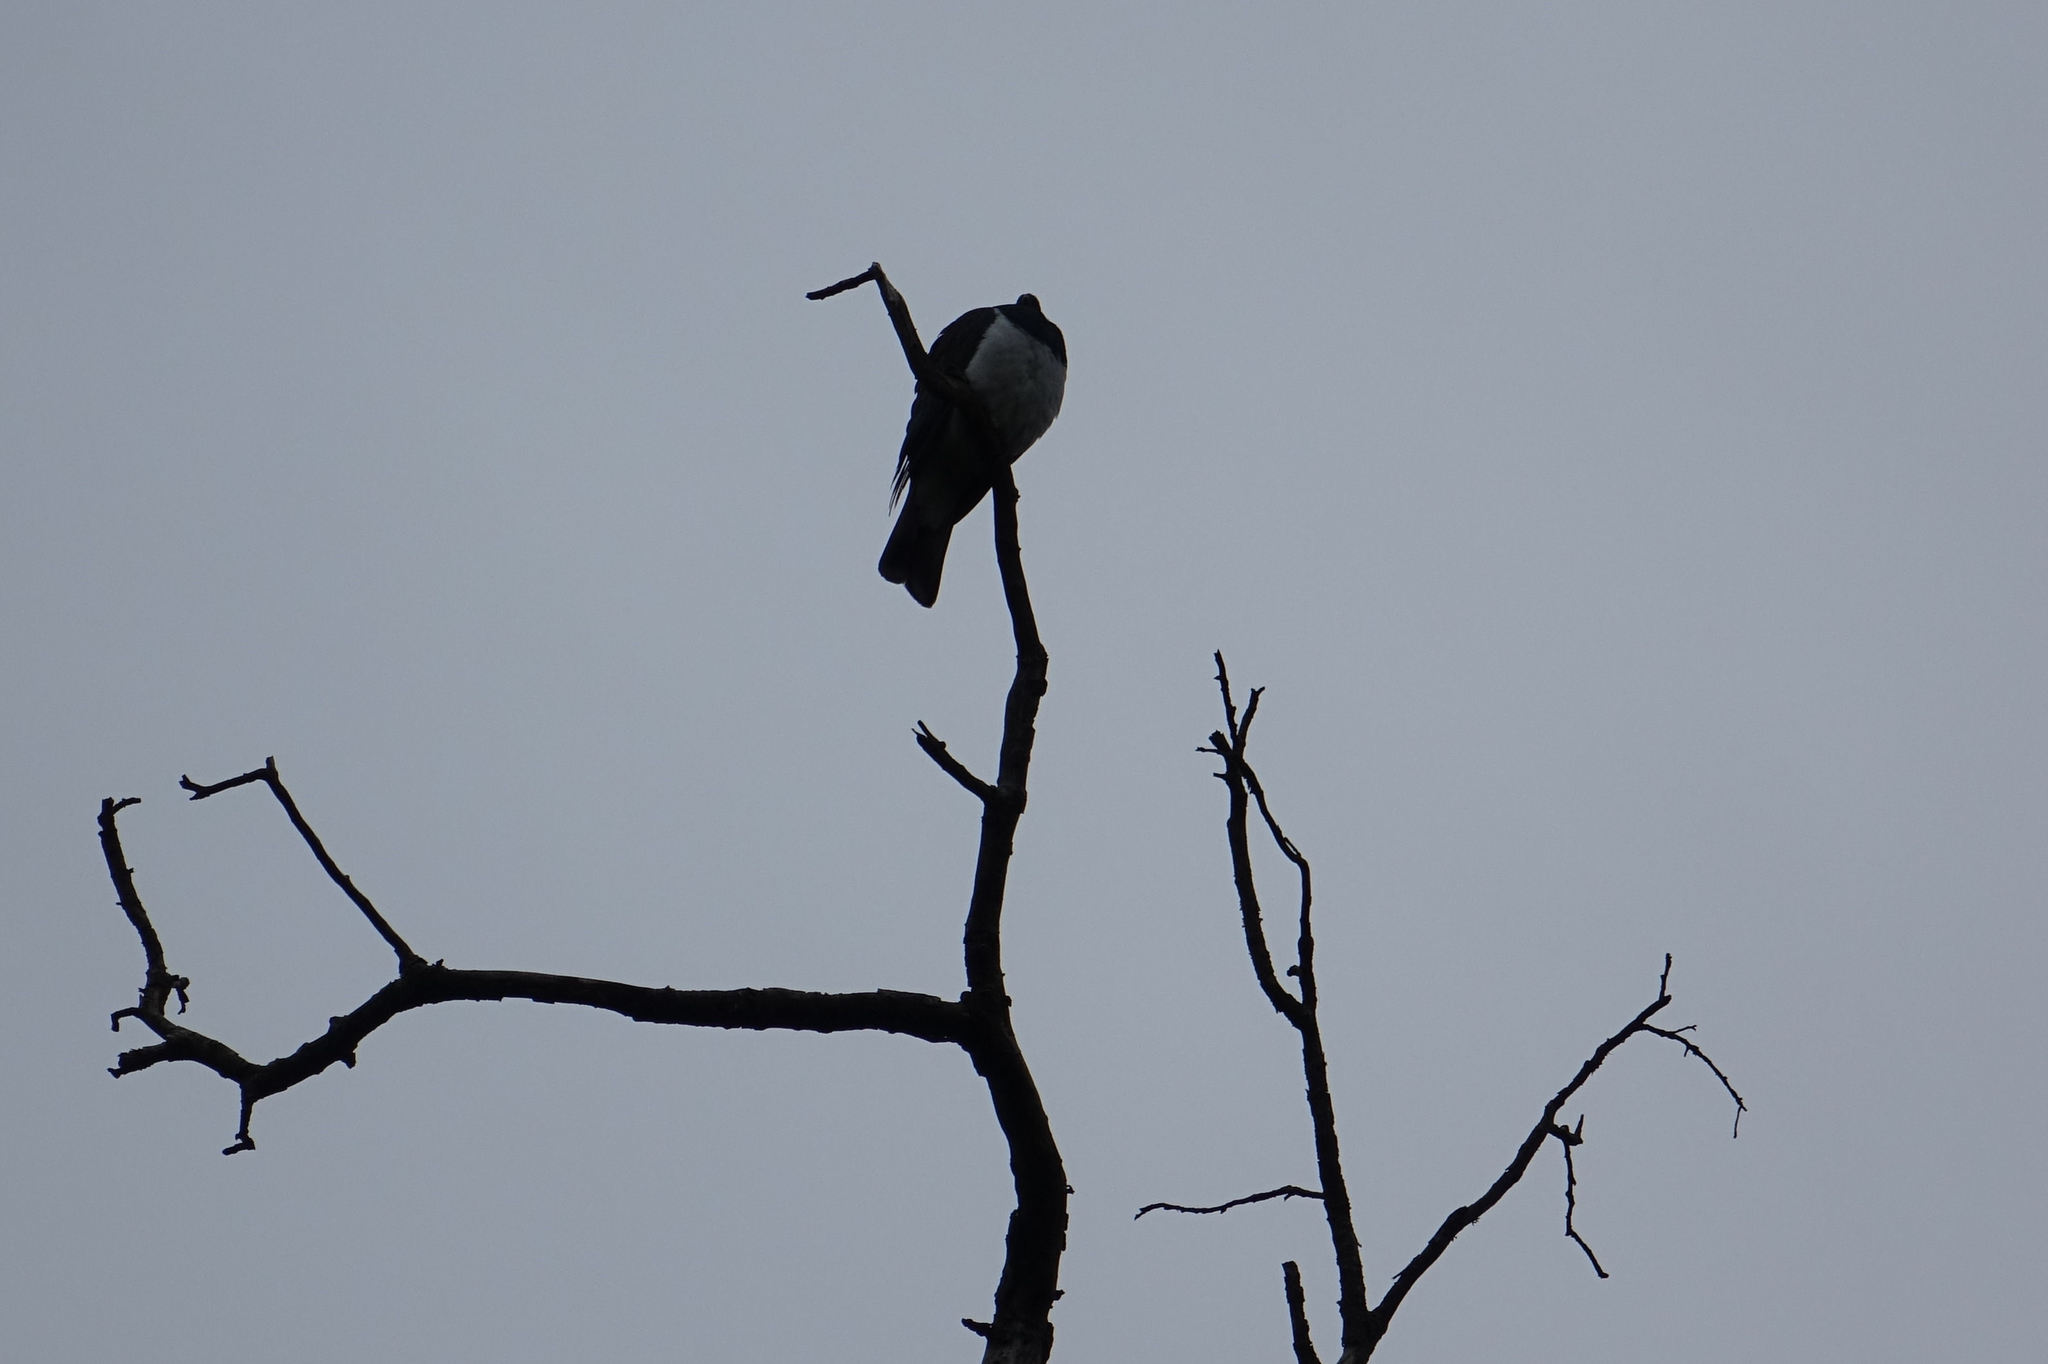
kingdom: Animalia
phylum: Chordata
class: Aves
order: Columbiformes
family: Columbidae
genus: Hemiphaga
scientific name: Hemiphaga novaeseelandiae
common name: New zealand pigeon
